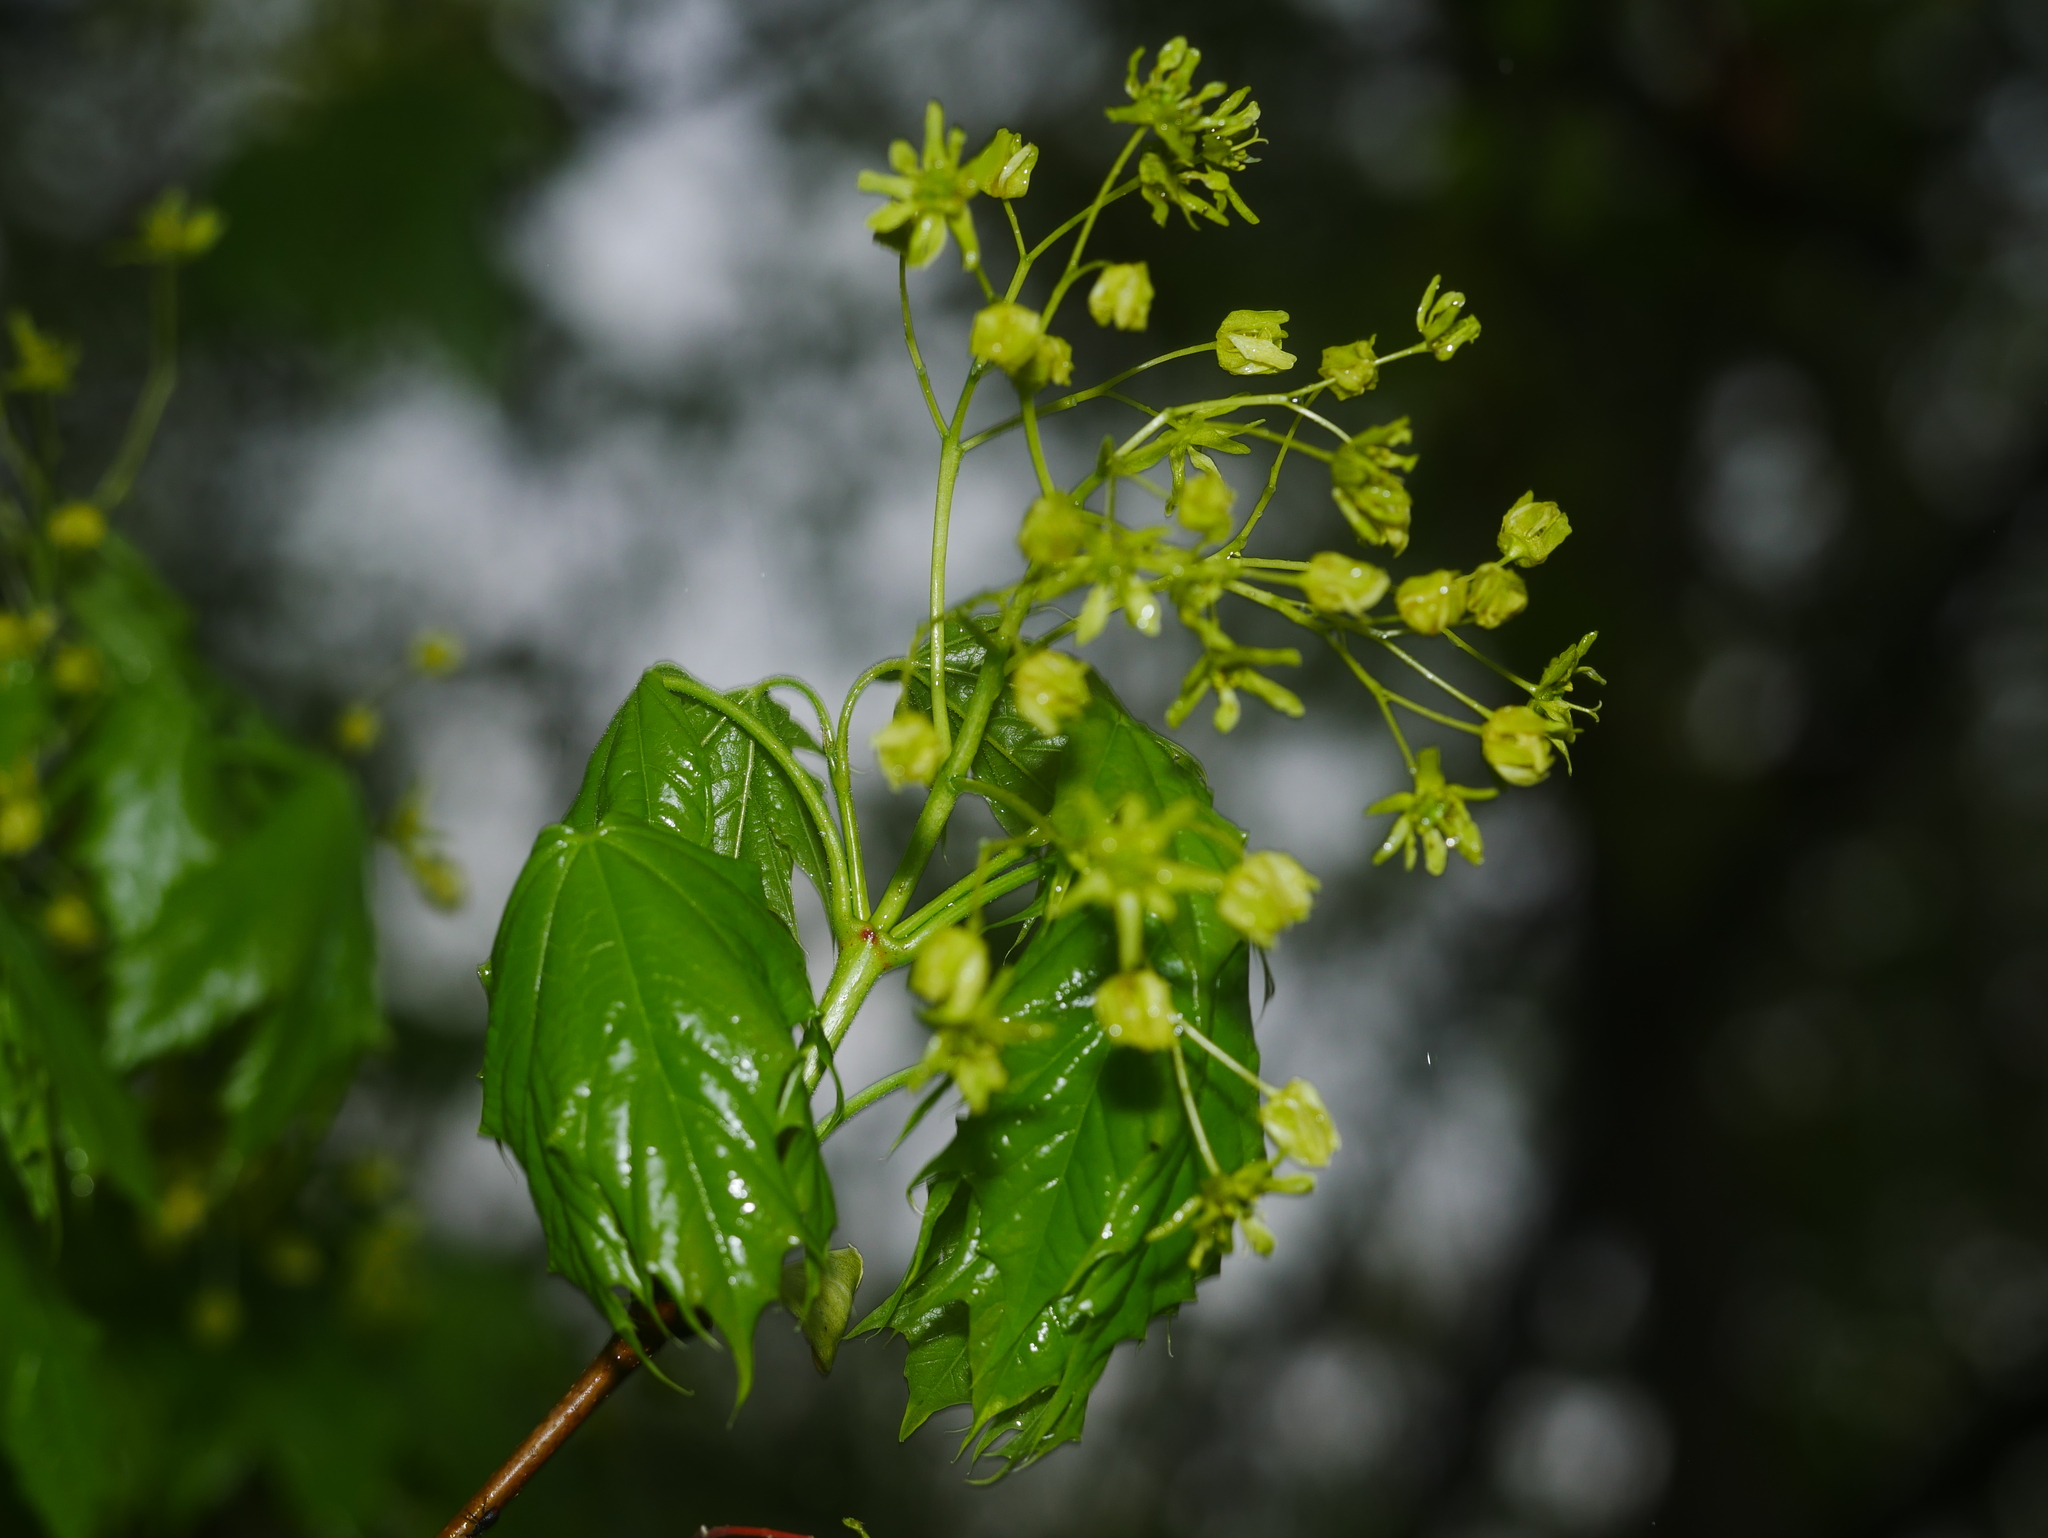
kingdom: Plantae
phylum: Tracheophyta
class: Magnoliopsida
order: Sapindales
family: Sapindaceae
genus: Acer
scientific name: Acer platanoides
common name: Norway maple
